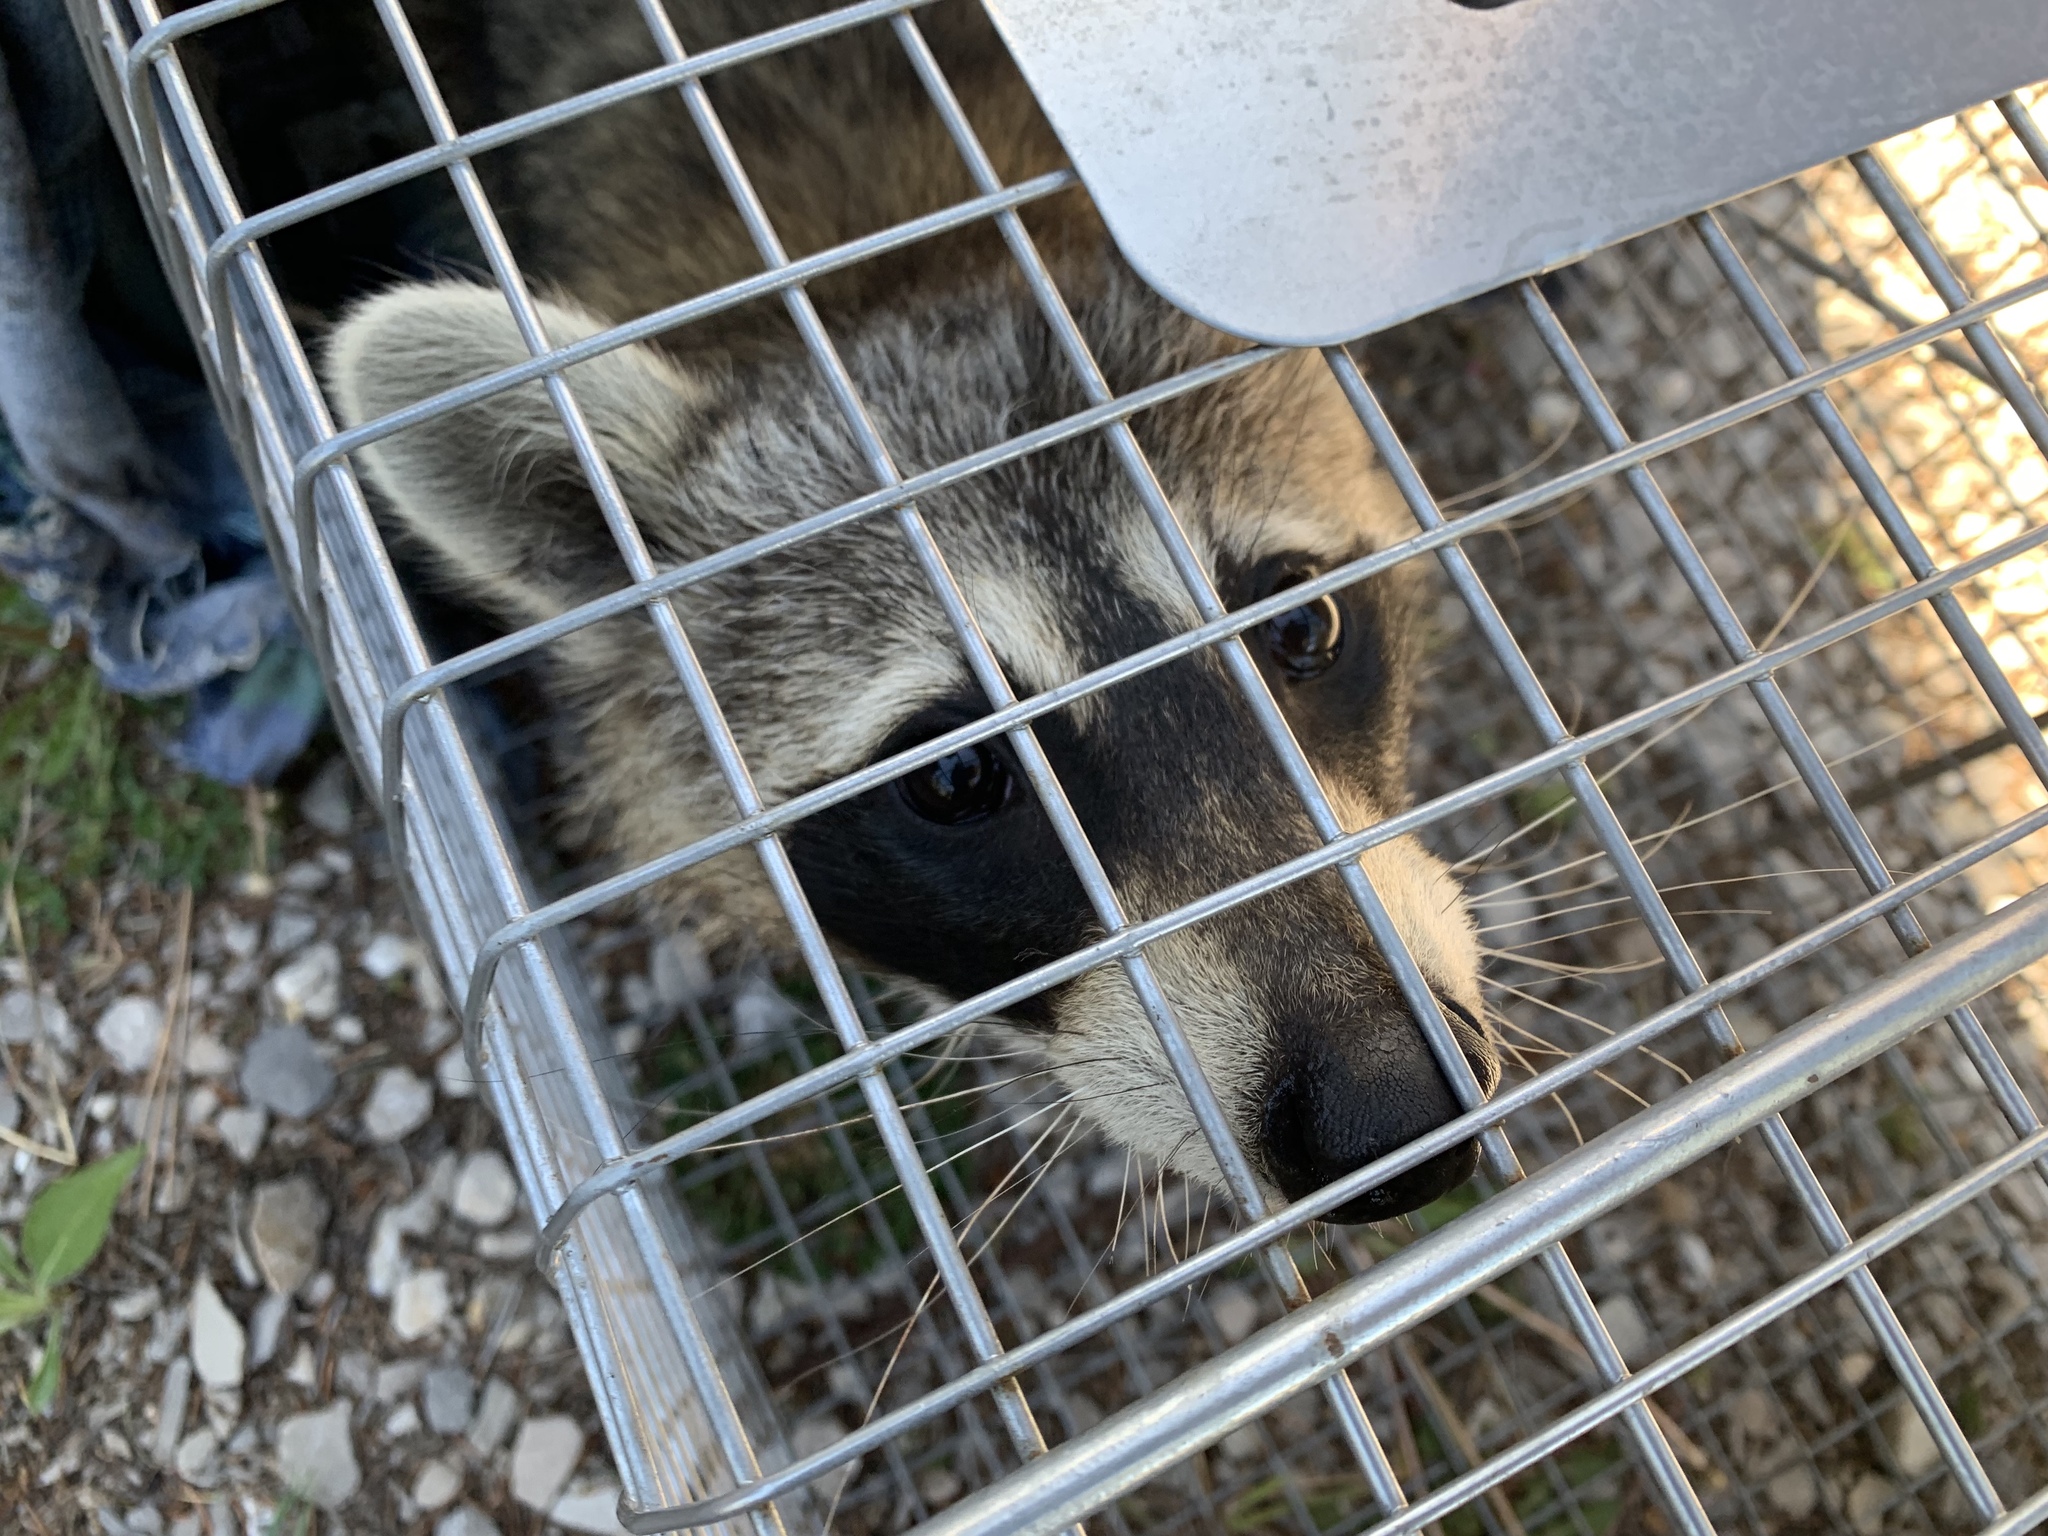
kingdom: Animalia
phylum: Chordata
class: Mammalia
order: Carnivora
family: Procyonidae
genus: Procyon
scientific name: Procyon lotor
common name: Raccoon
